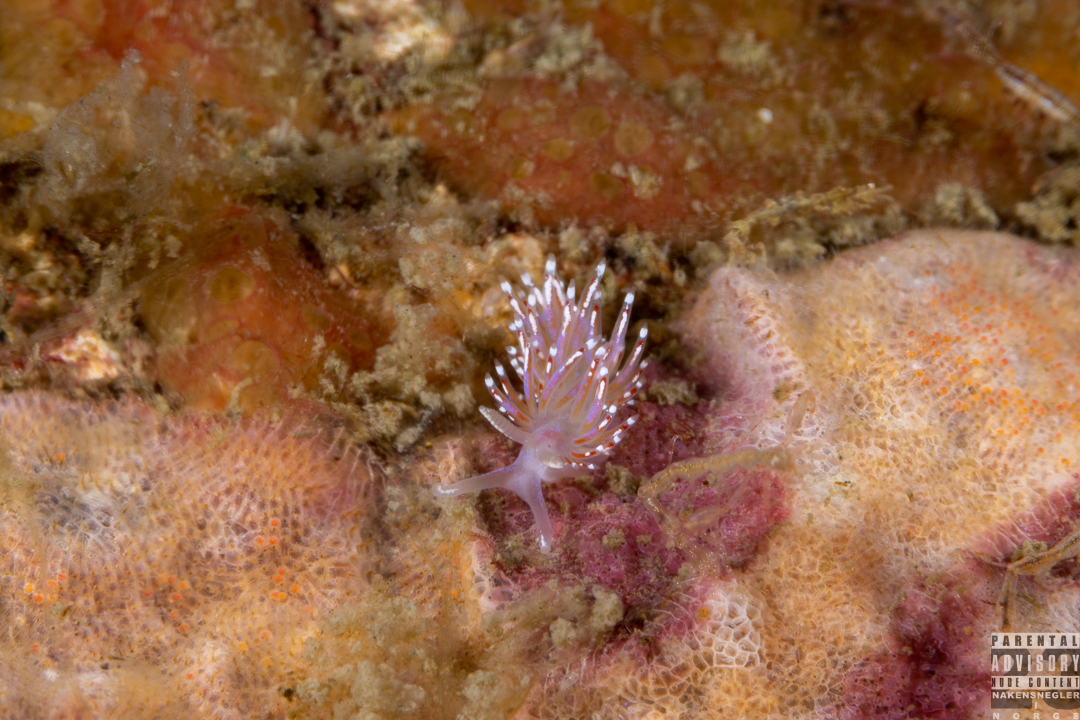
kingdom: Animalia
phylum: Mollusca
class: Gastropoda
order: Nudibranchia
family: Facelinidae
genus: Facelina
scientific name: Facelina auriculata
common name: Slender facelina
